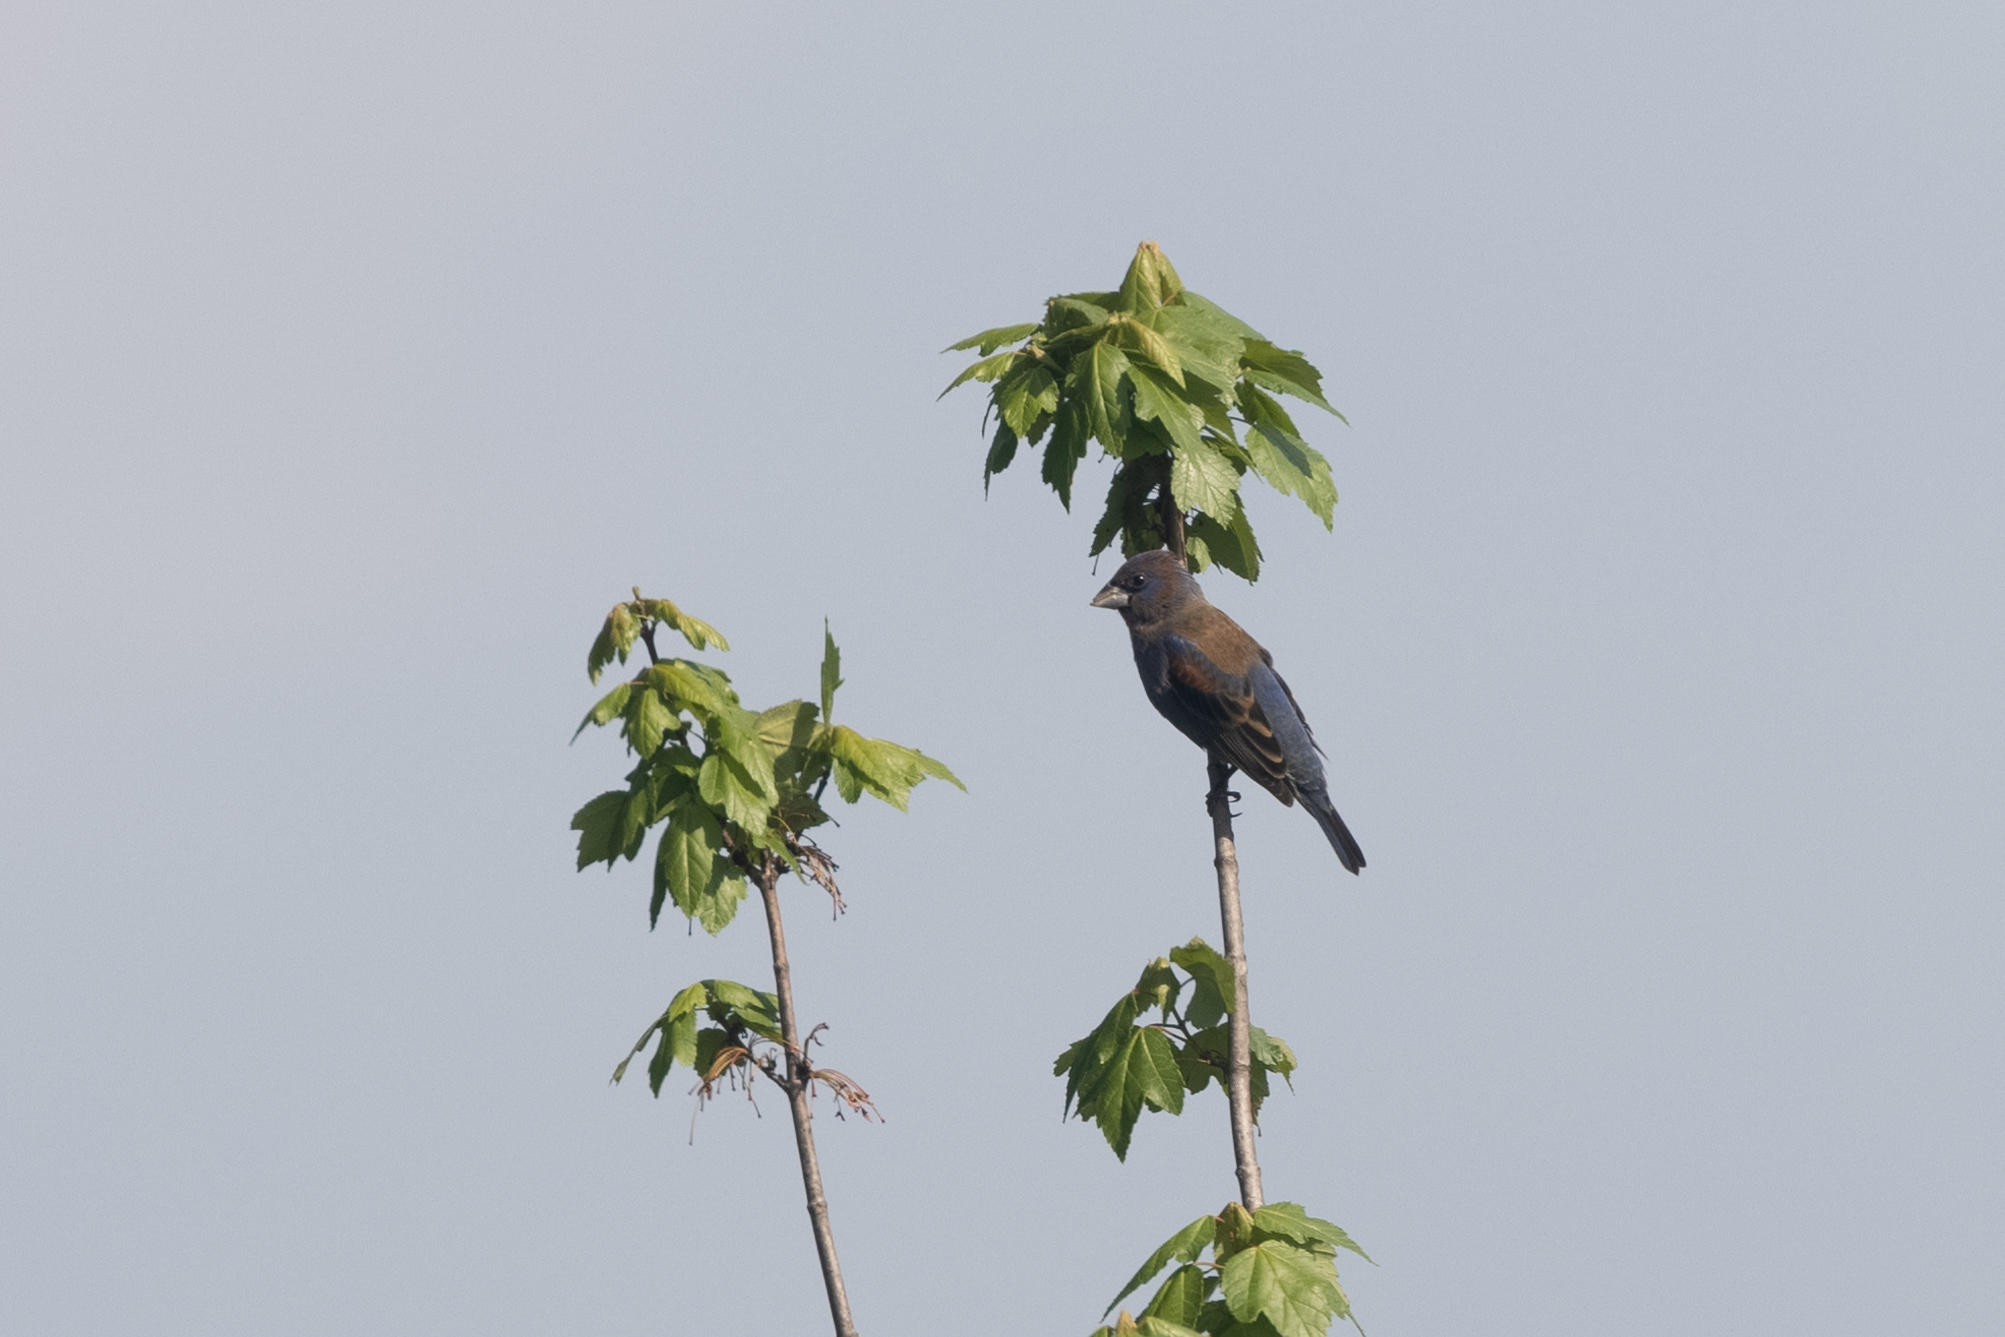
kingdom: Animalia
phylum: Chordata
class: Aves
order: Passeriformes
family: Cardinalidae
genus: Passerina
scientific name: Passerina caerulea
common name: Blue grosbeak
